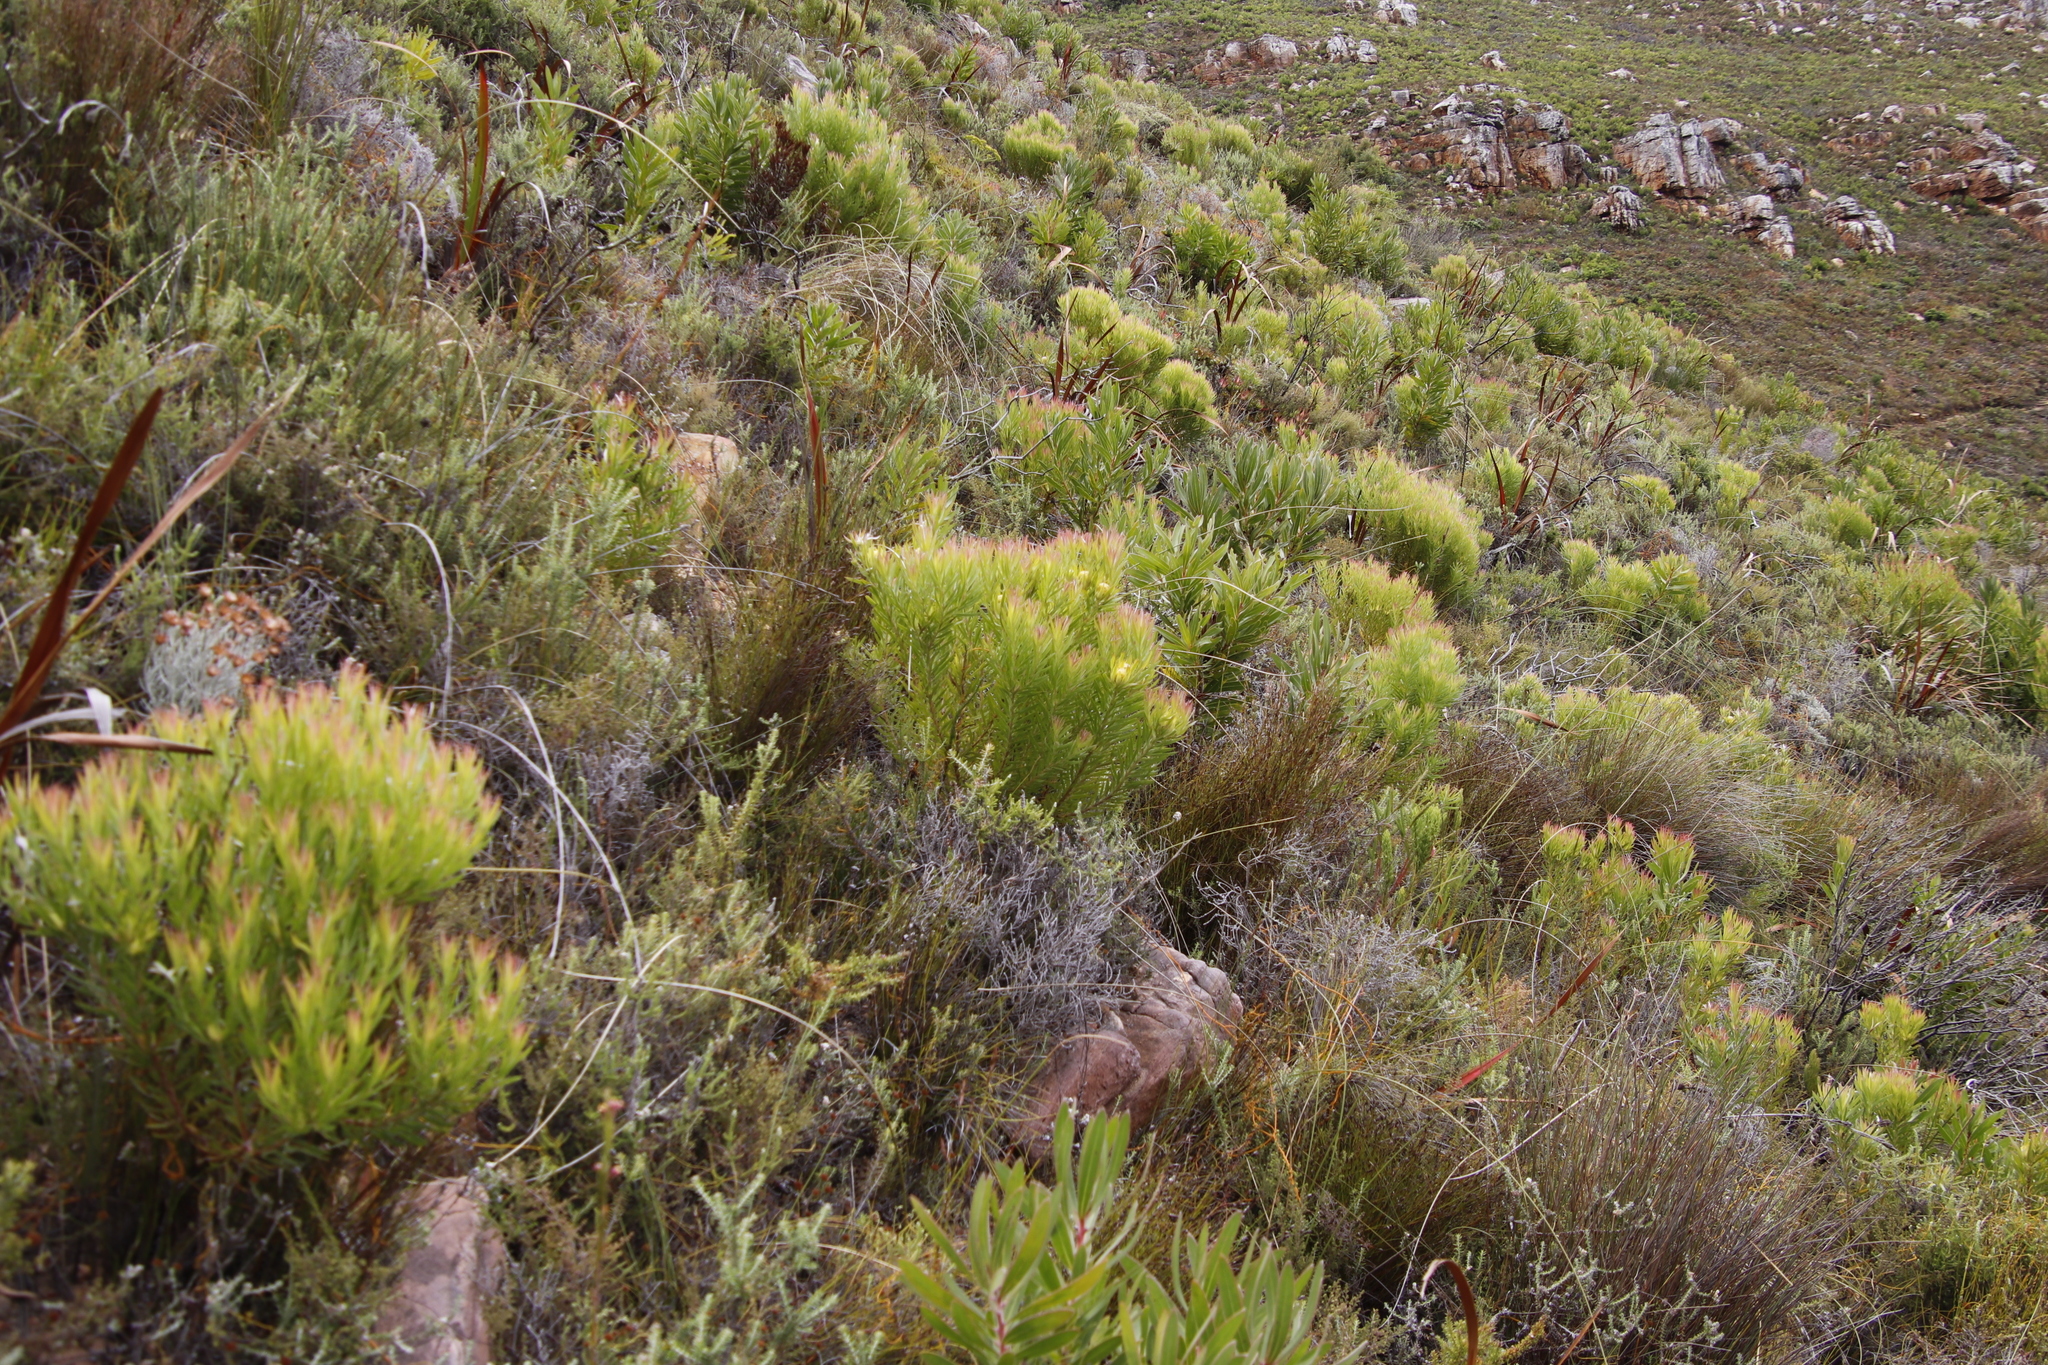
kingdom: Plantae
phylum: Tracheophyta
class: Magnoliopsida
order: Proteales
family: Proteaceae
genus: Leucadendron
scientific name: Leucadendron xanthoconus
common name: Sickle-leaf conebush
